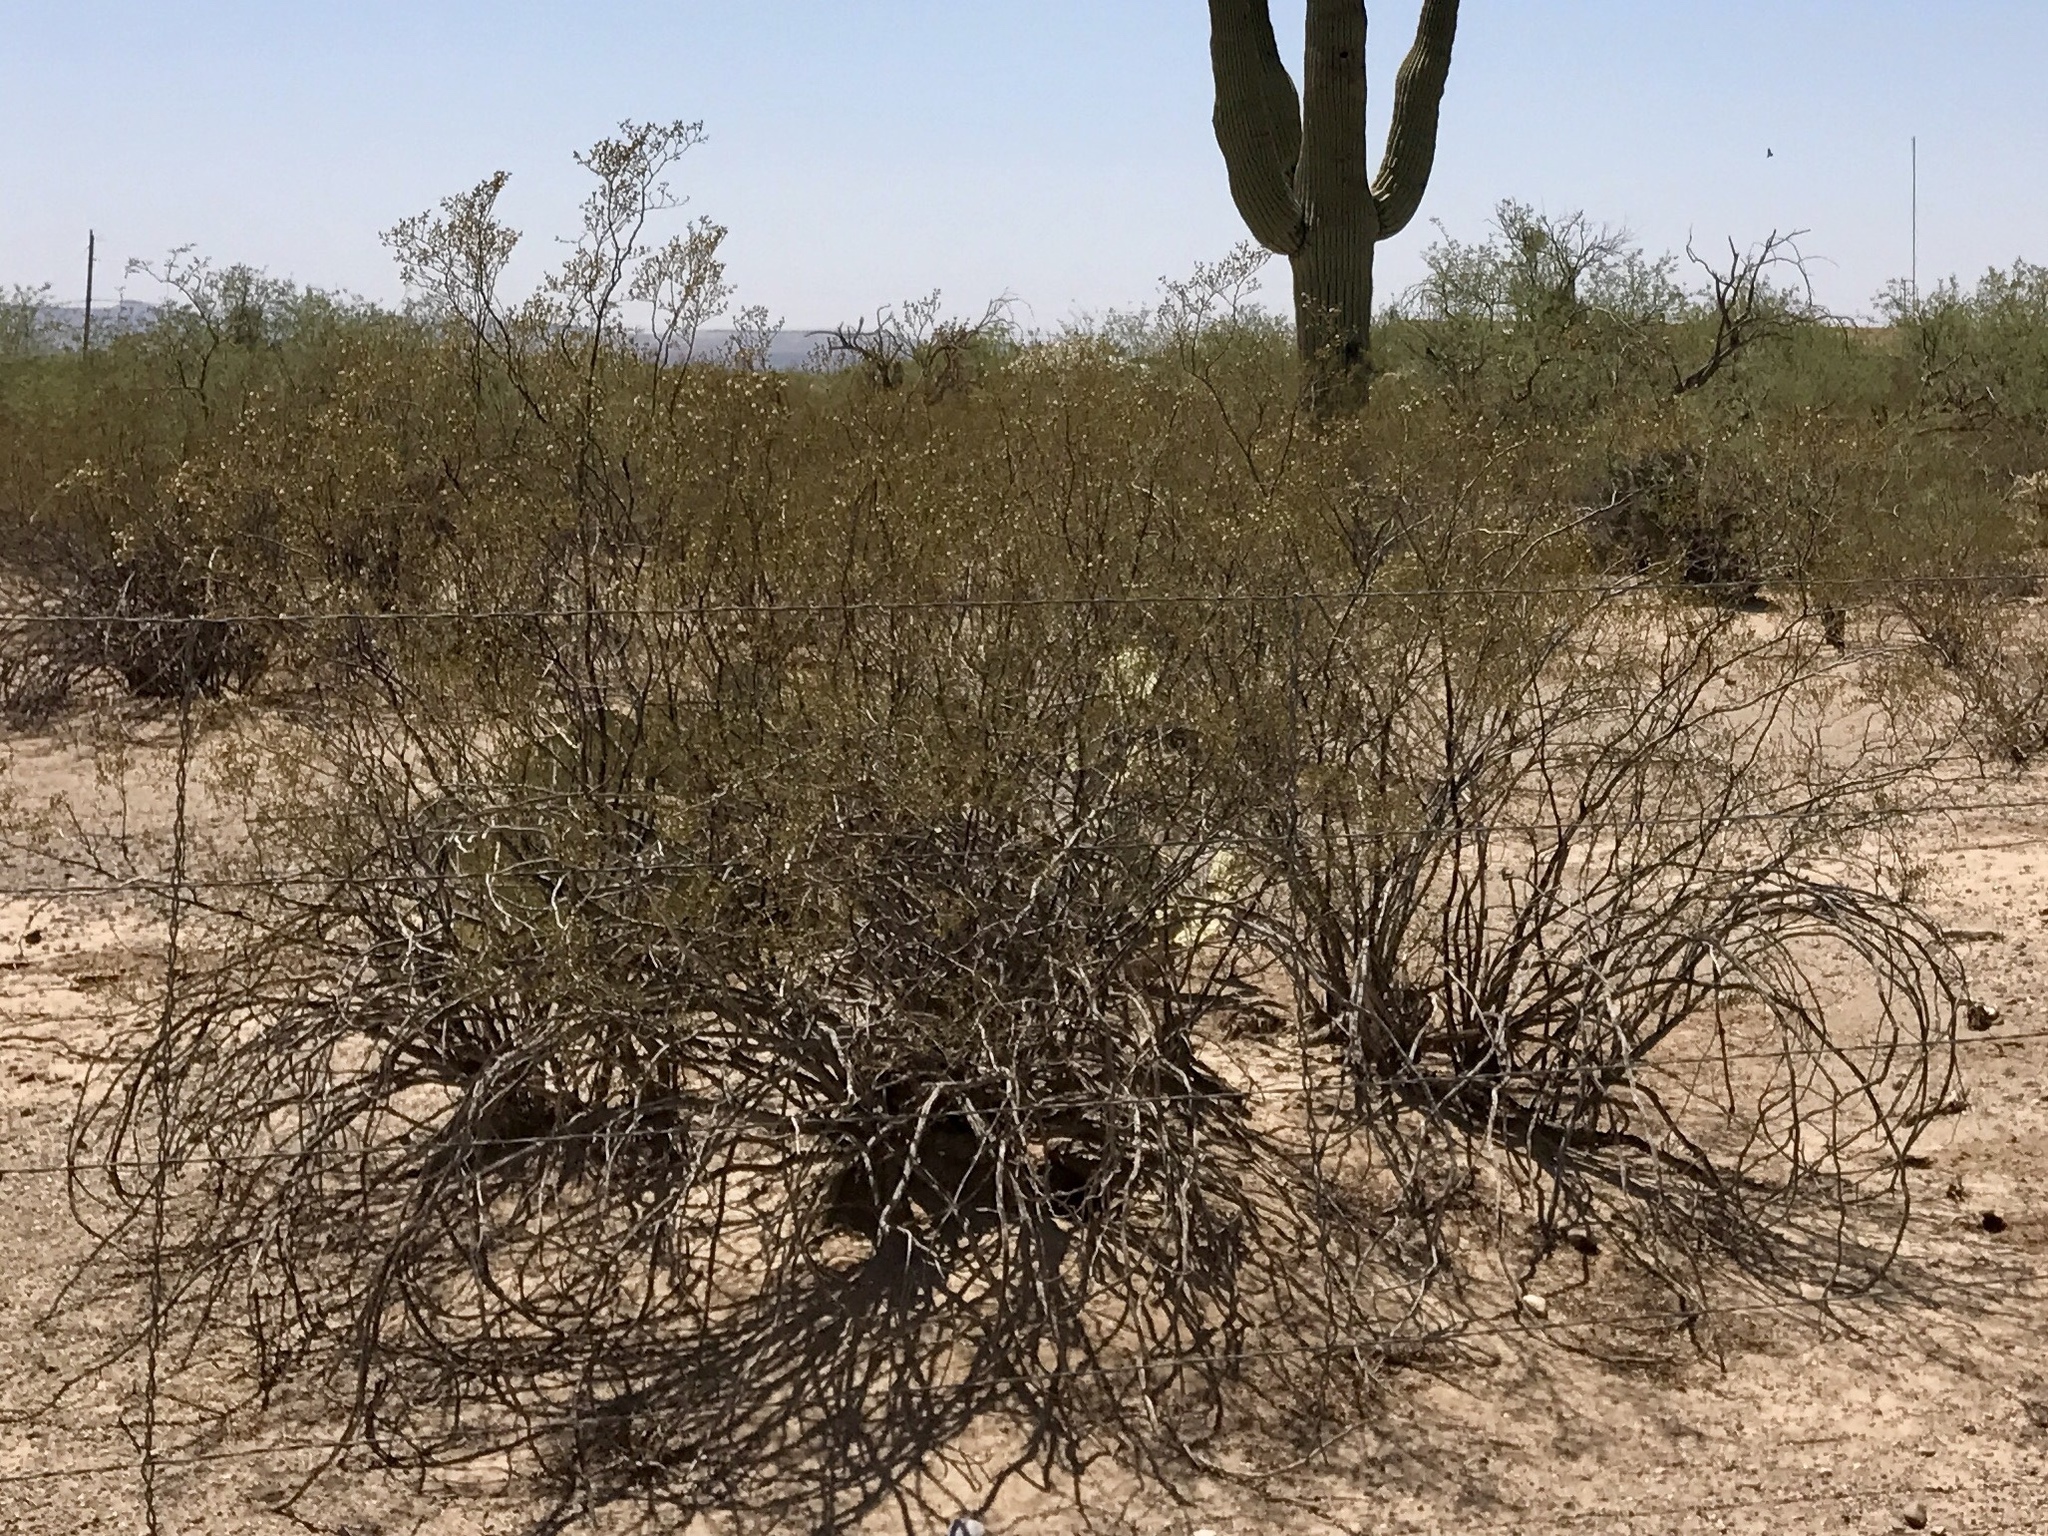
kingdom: Plantae
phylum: Tracheophyta
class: Magnoliopsida
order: Zygophyllales
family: Zygophyllaceae
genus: Larrea
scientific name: Larrea tridentata
